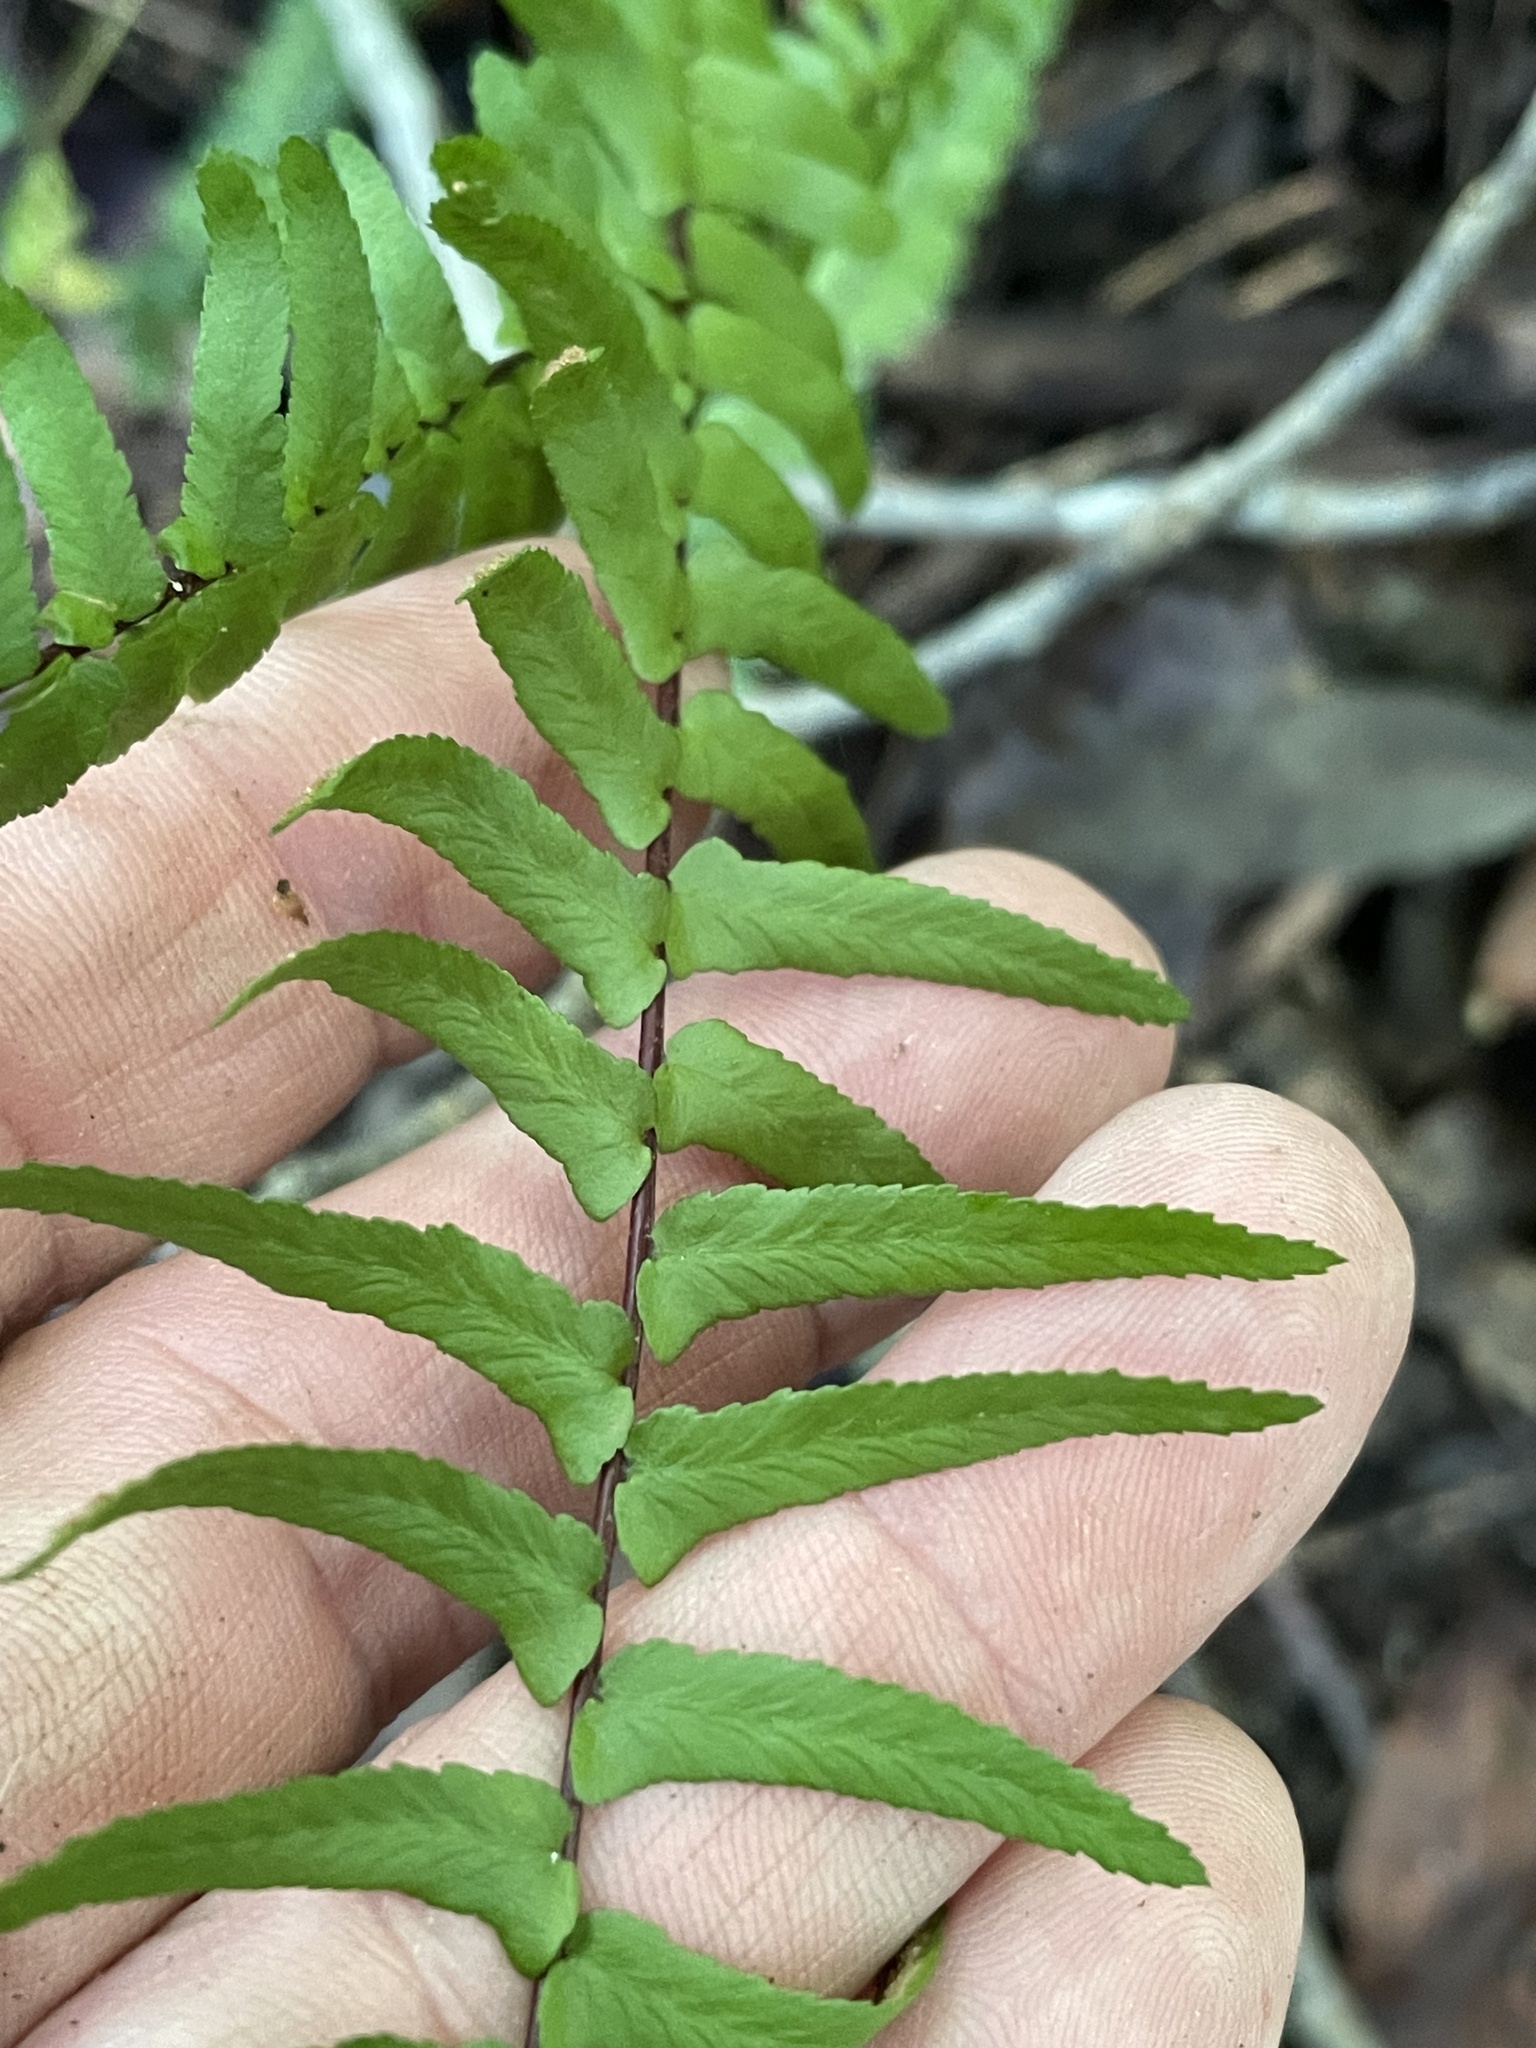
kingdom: Plantae
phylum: Tracheophyta
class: Polypodiopsida
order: Polypodiales
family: Aspleniaceae
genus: Asplenium
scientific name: Asplenium platyneuron
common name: Ebony spleenwort
